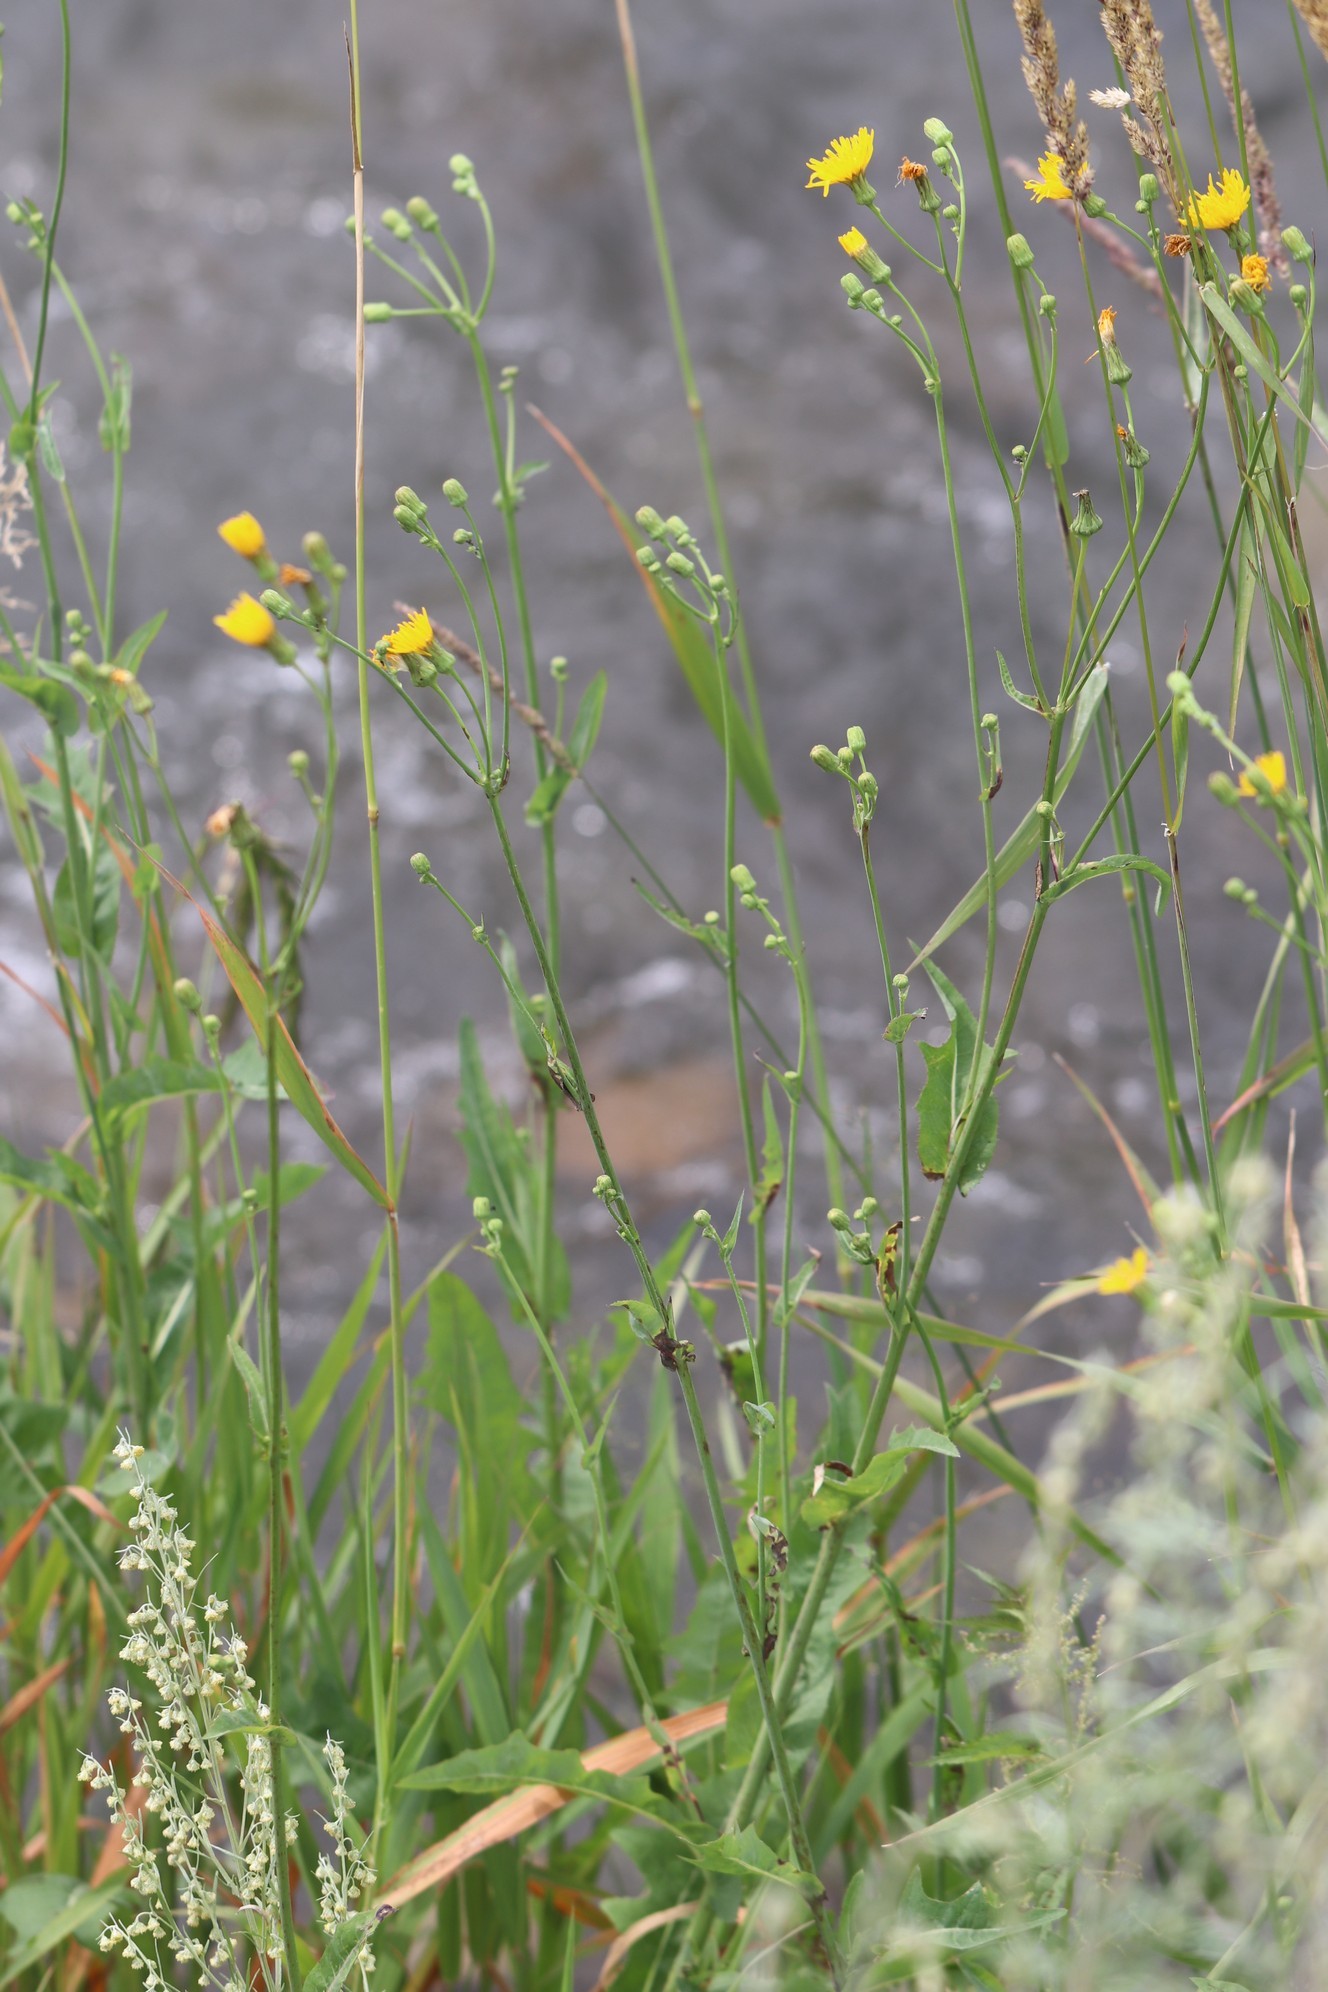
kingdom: Plantae
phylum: Tracheophyta
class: Magnoliopsida
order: Asterales
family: Asteraceae
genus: Sonchus
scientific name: Sonchus arvensis
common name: Perennial sow-thistle
